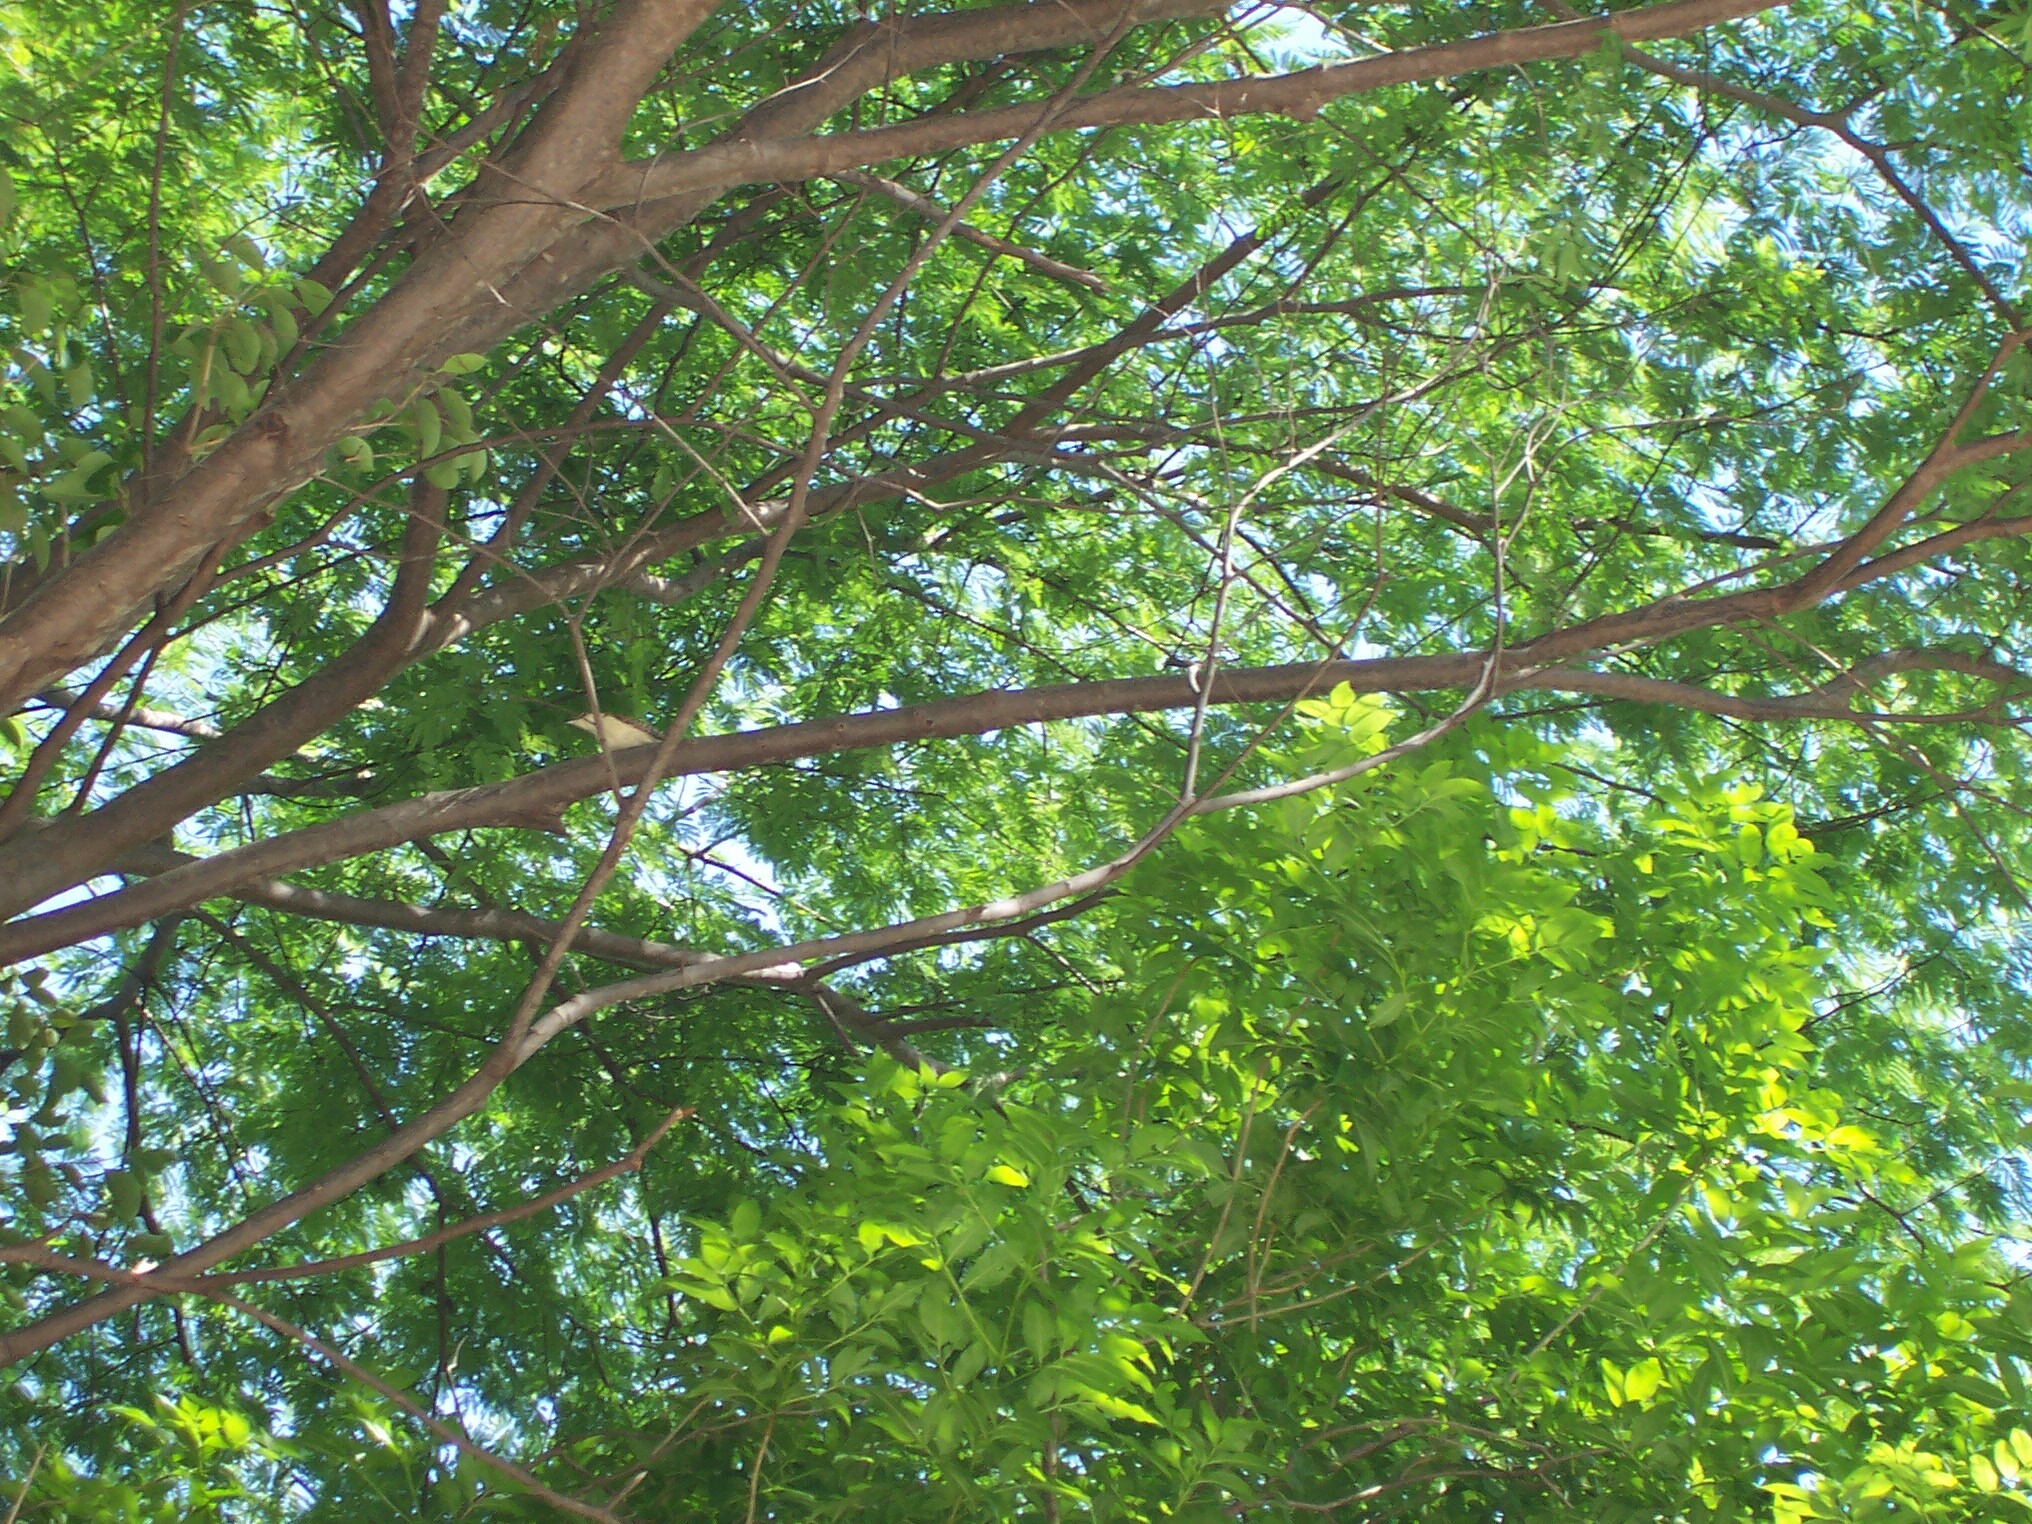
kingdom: Animalia
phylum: Chordata
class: Aves
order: Passeriformes
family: Troglodytidae
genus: Campylorhynchus
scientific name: Campylorhynchus rufinucha
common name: Rufous-naped wren
